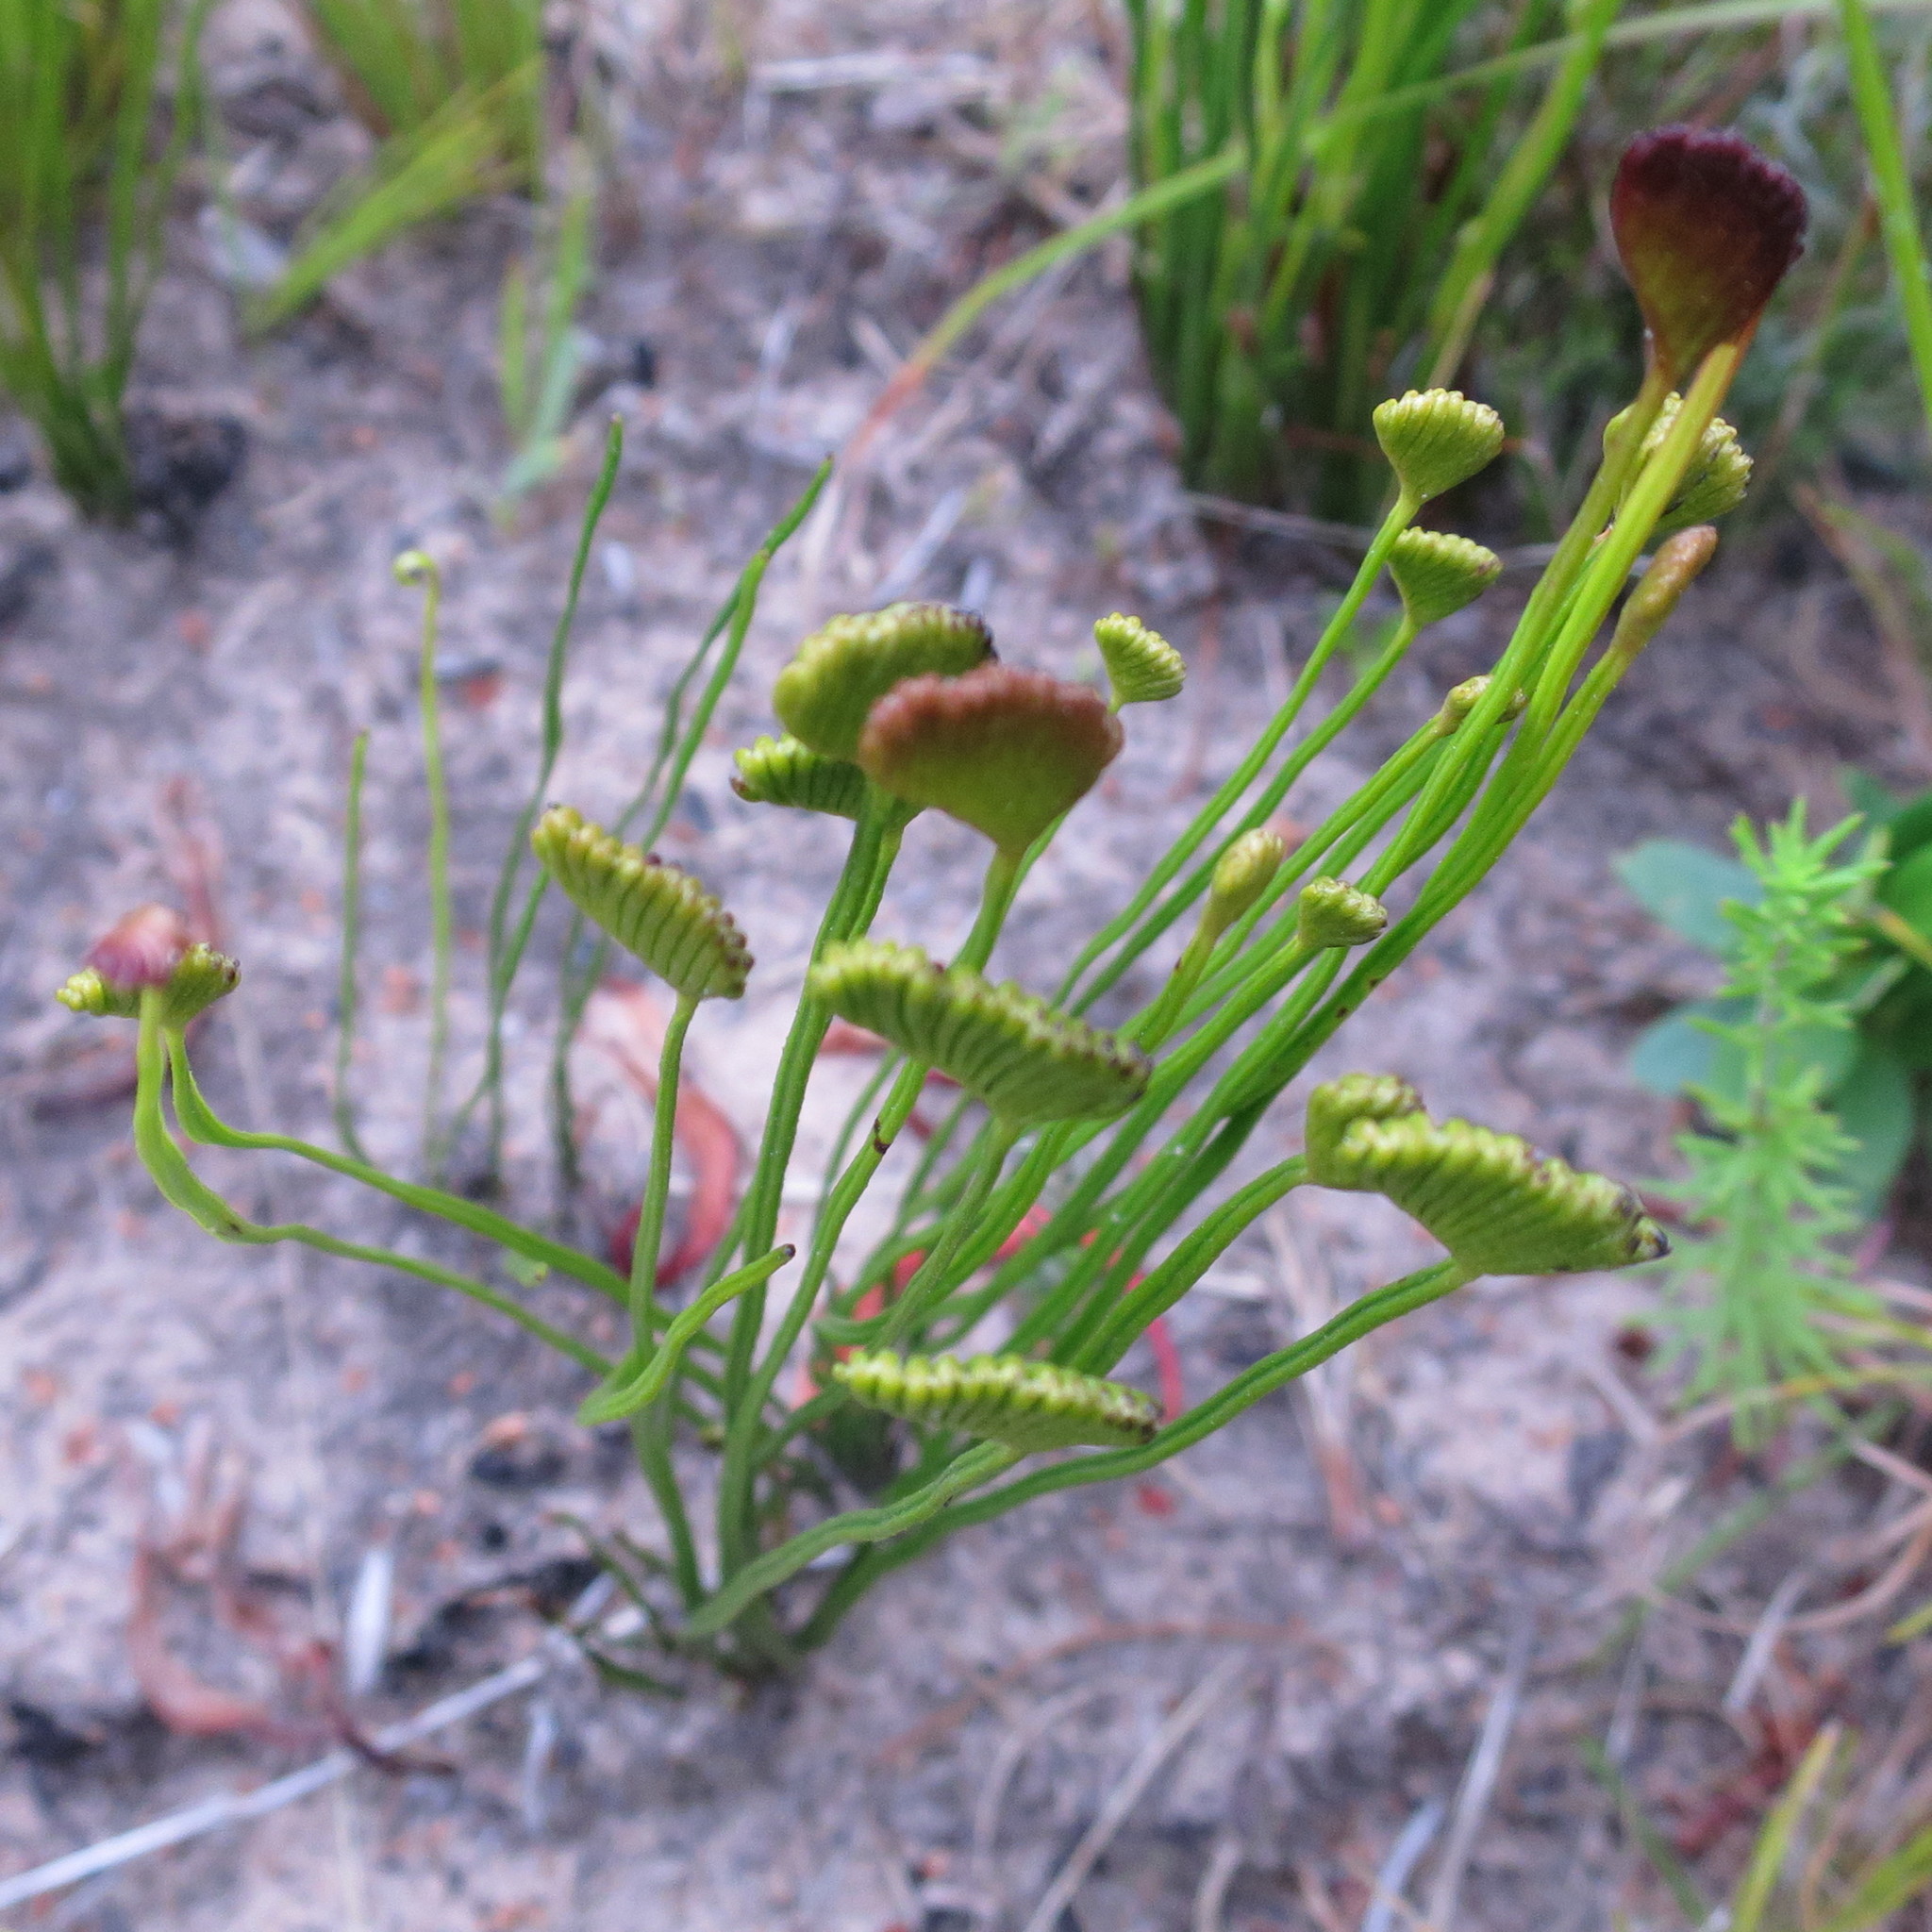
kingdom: Plantae
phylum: Tracheophyta
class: Polypodiopsida
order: Schizaeales
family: Schizaeaceae
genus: Schizaea
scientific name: Schizaea pectinata
